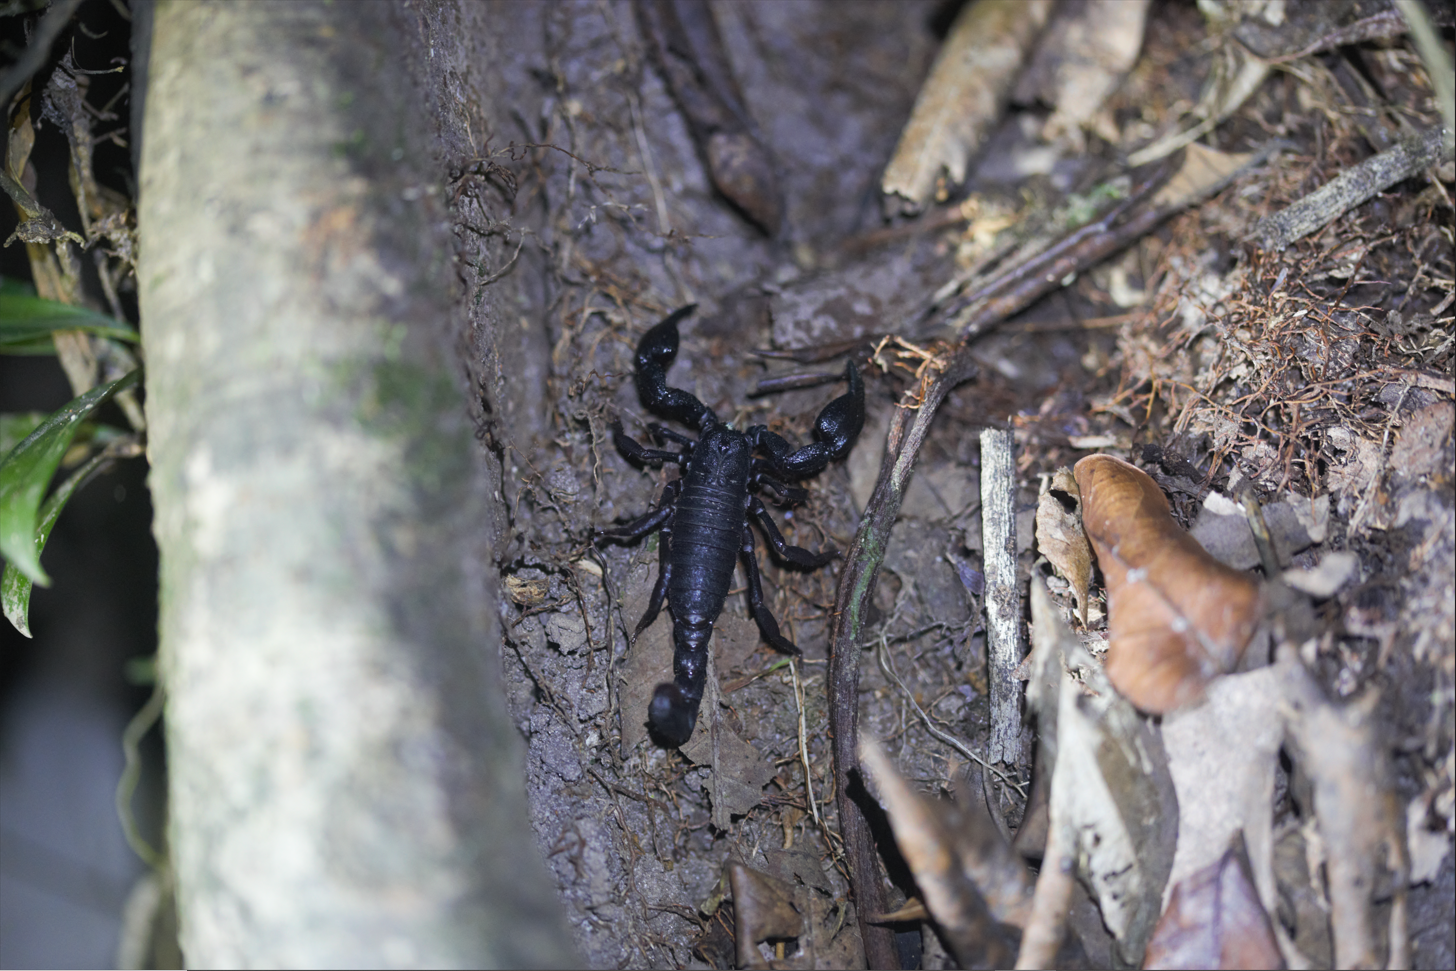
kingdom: Animalia
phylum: Arthropoda
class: Arachnida
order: Scorpiones
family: Chactidae
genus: Brotheas
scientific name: Brotheas granulatus
